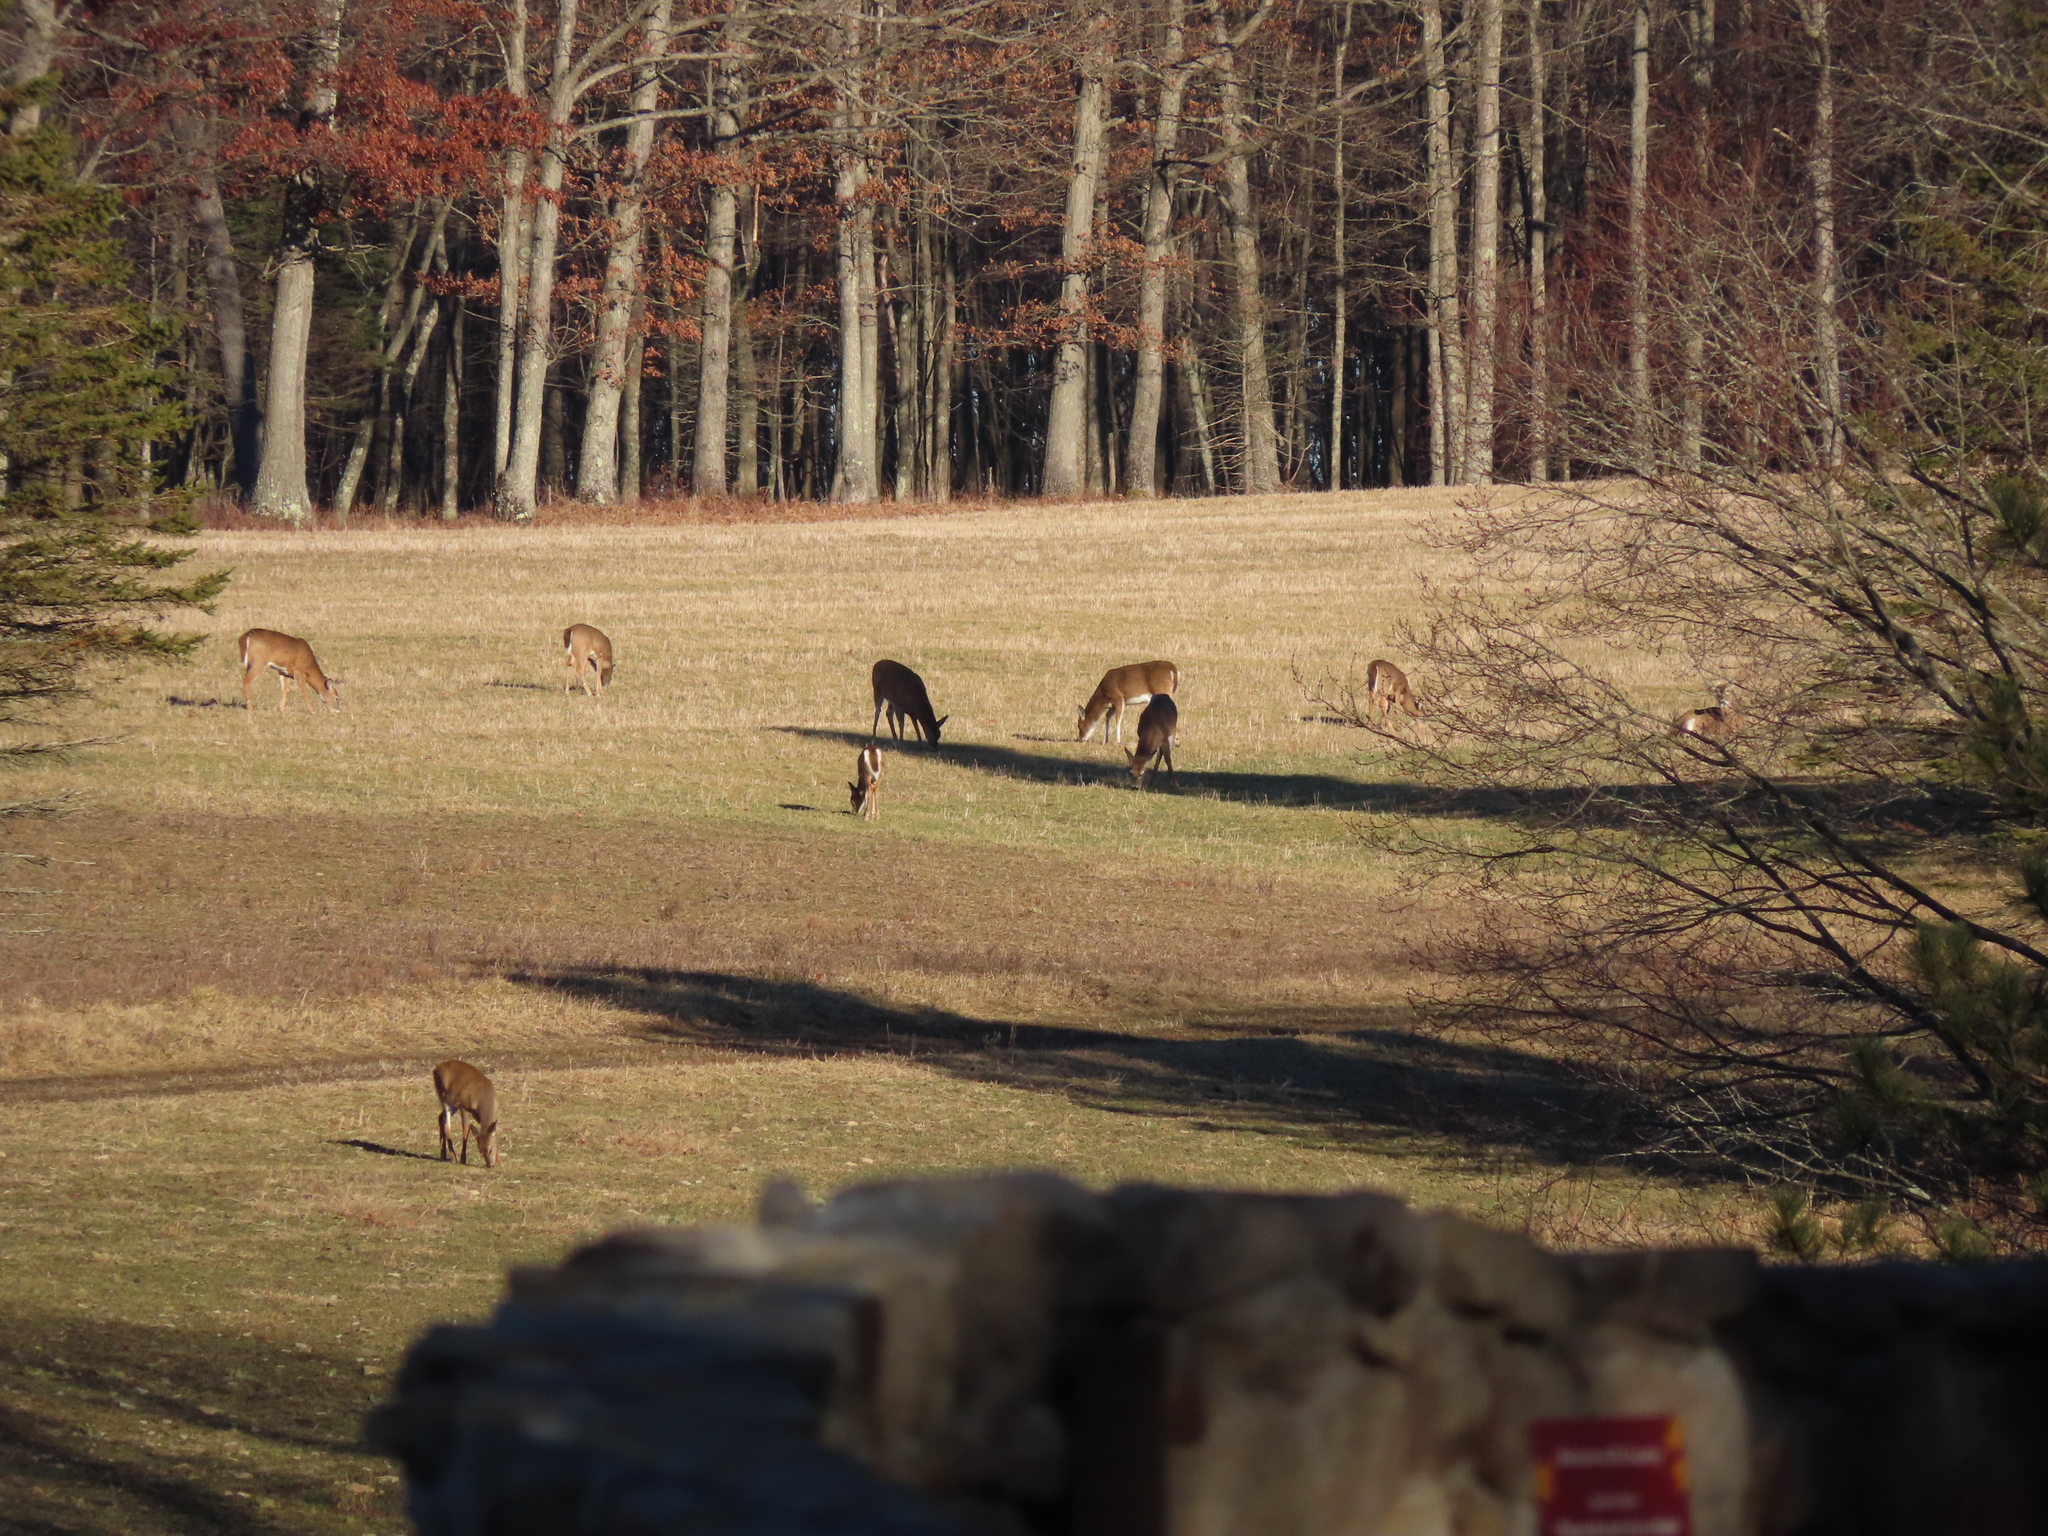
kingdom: Animalia
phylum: Chordata
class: Mammalia
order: Artiodactyla
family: Cervidae
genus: Odocoileus
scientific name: Odocoileus virginianus
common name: White-tailed deer
